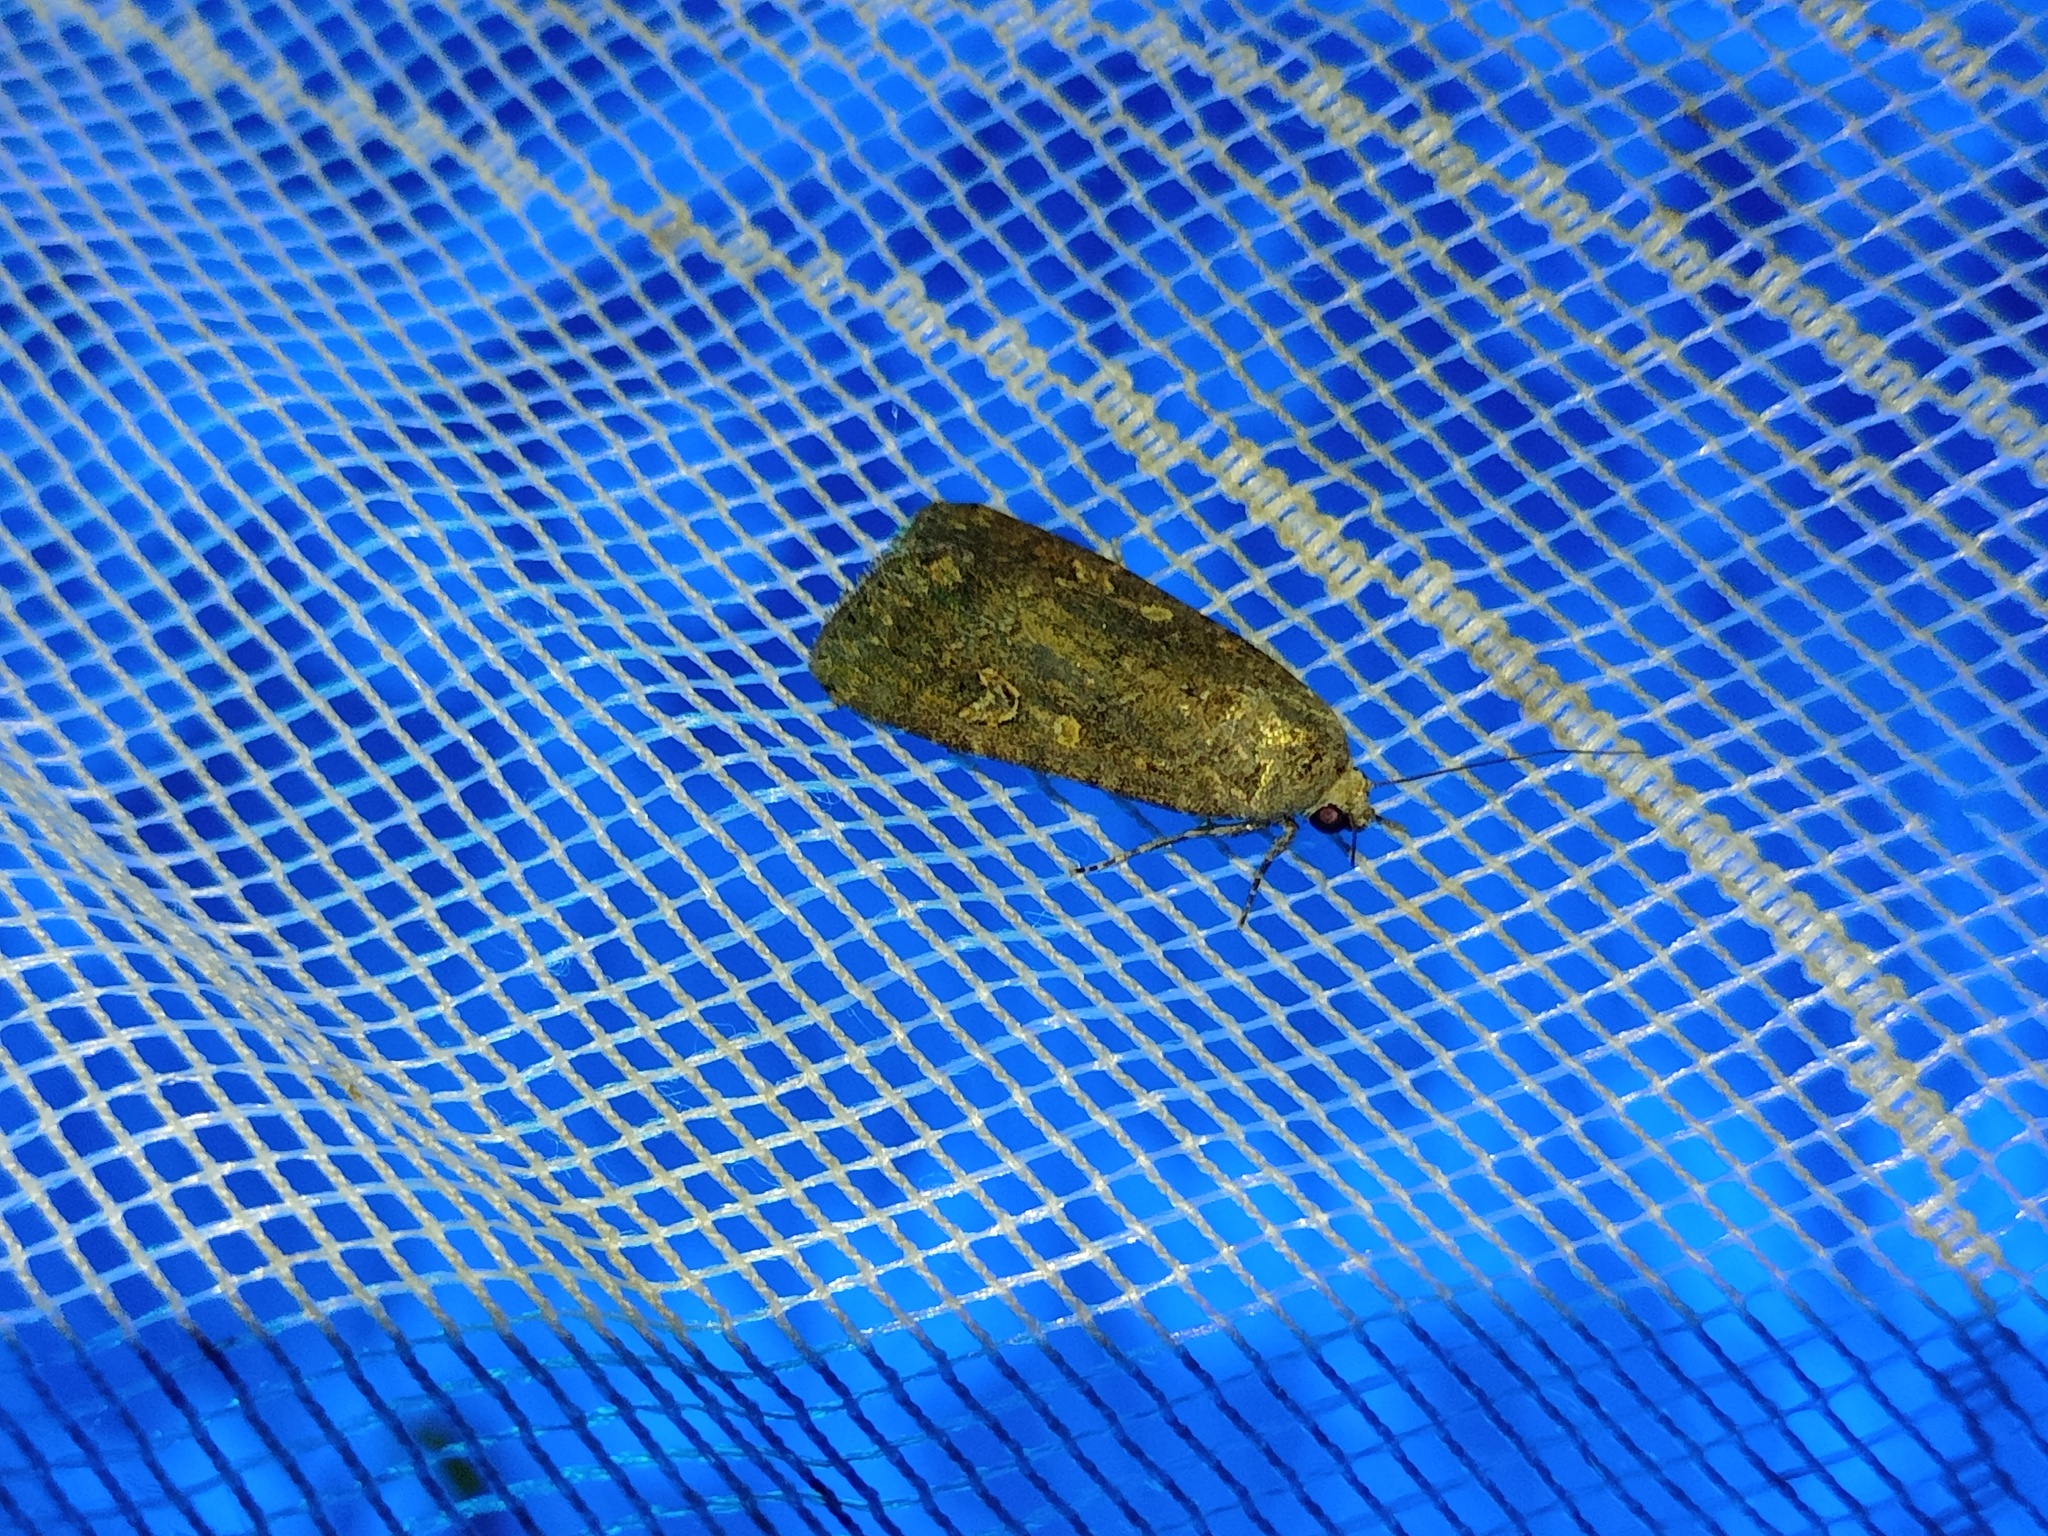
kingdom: Animalia
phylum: Arthropoda
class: Insecta
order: Lepidoptera
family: Noctuidae
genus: Spodoptera
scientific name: Spodoptera exigua
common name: Beet armyworm
